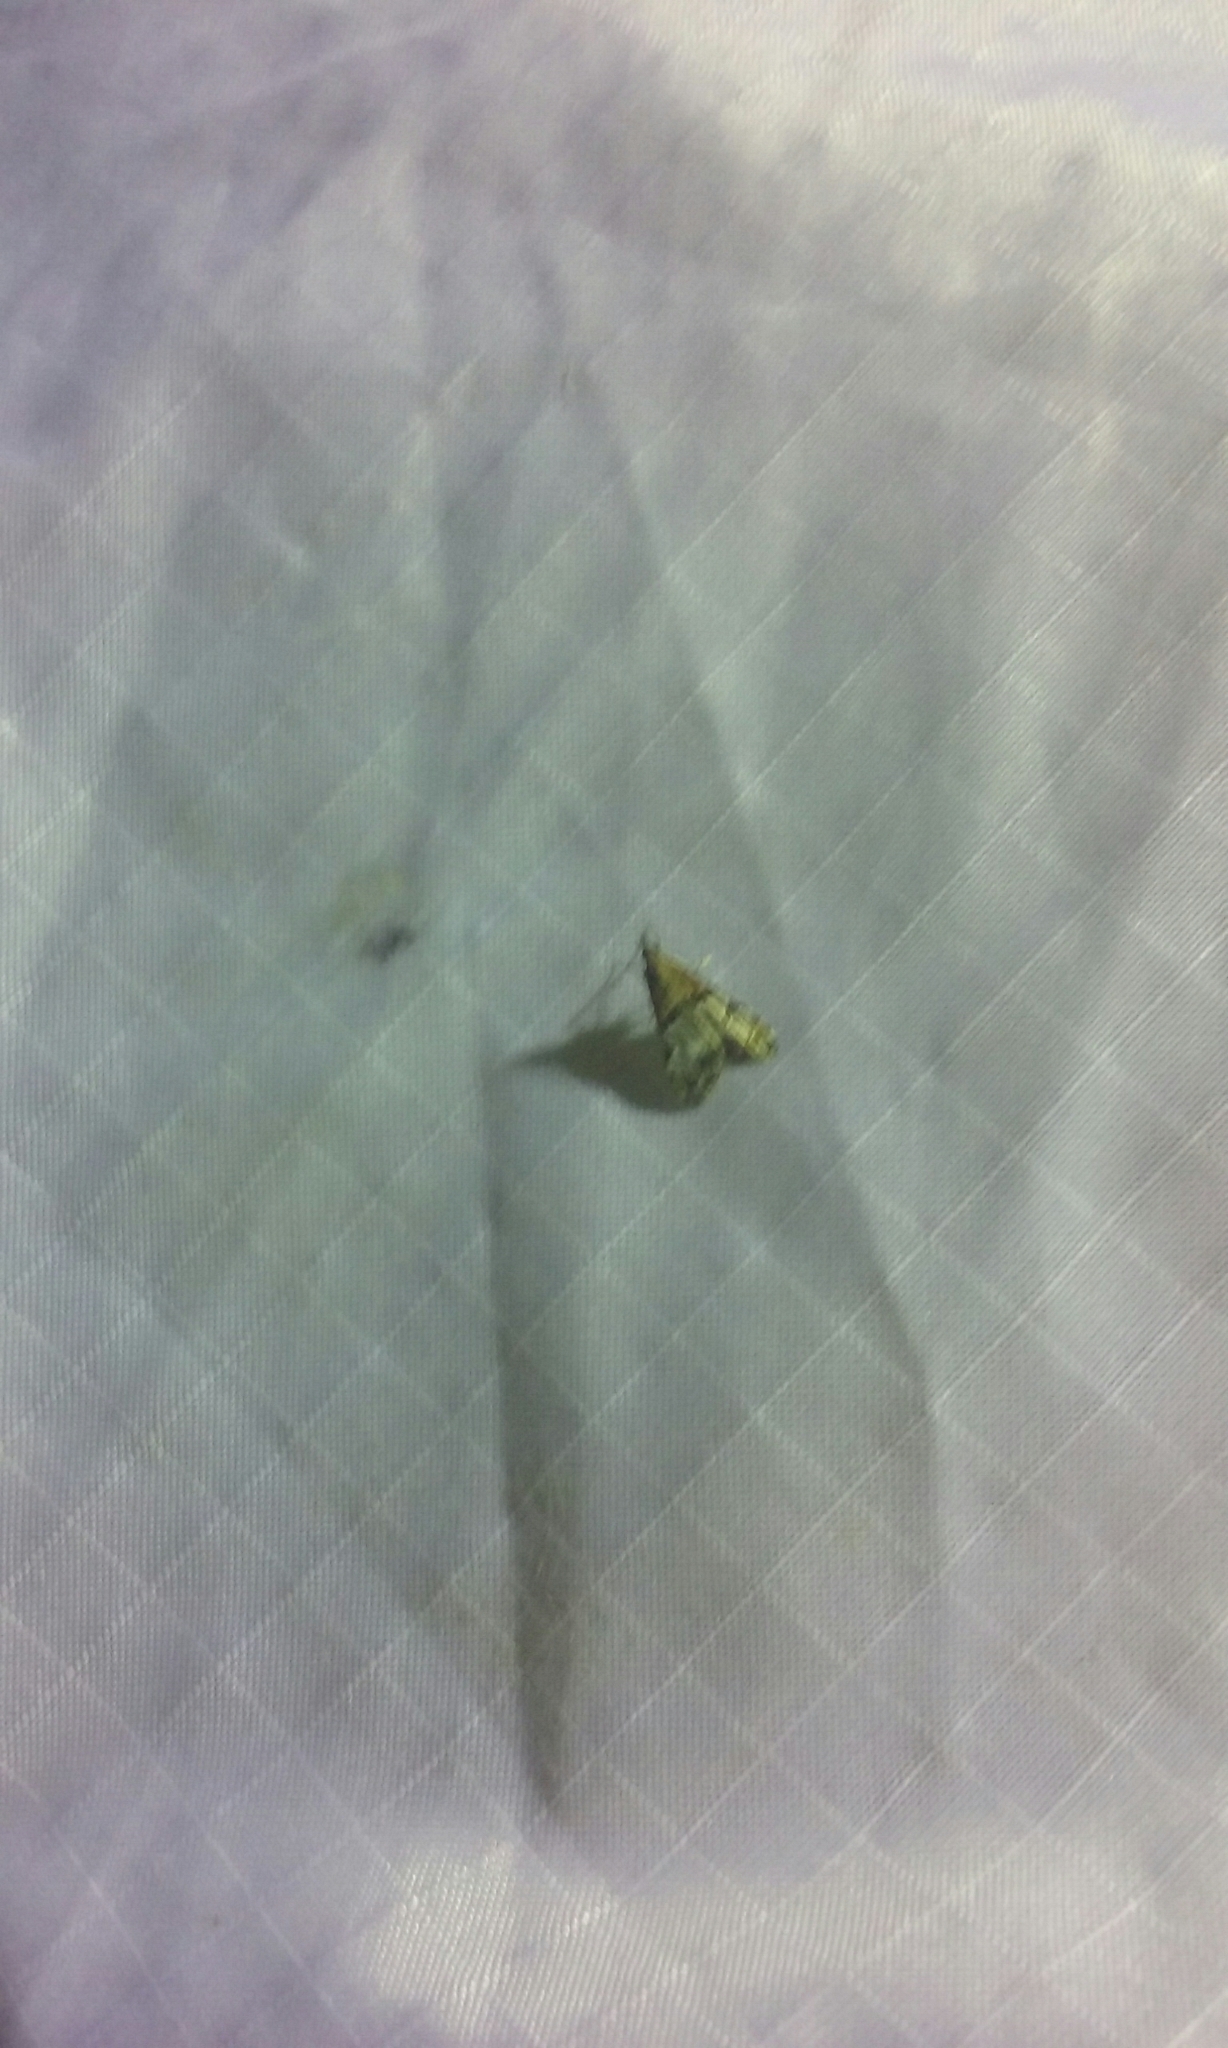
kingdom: Animalia
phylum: Arthropoda
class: Insecta
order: Lepidoptera
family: Crambidae
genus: Antiscopa
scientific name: Antiscopa epicomia
